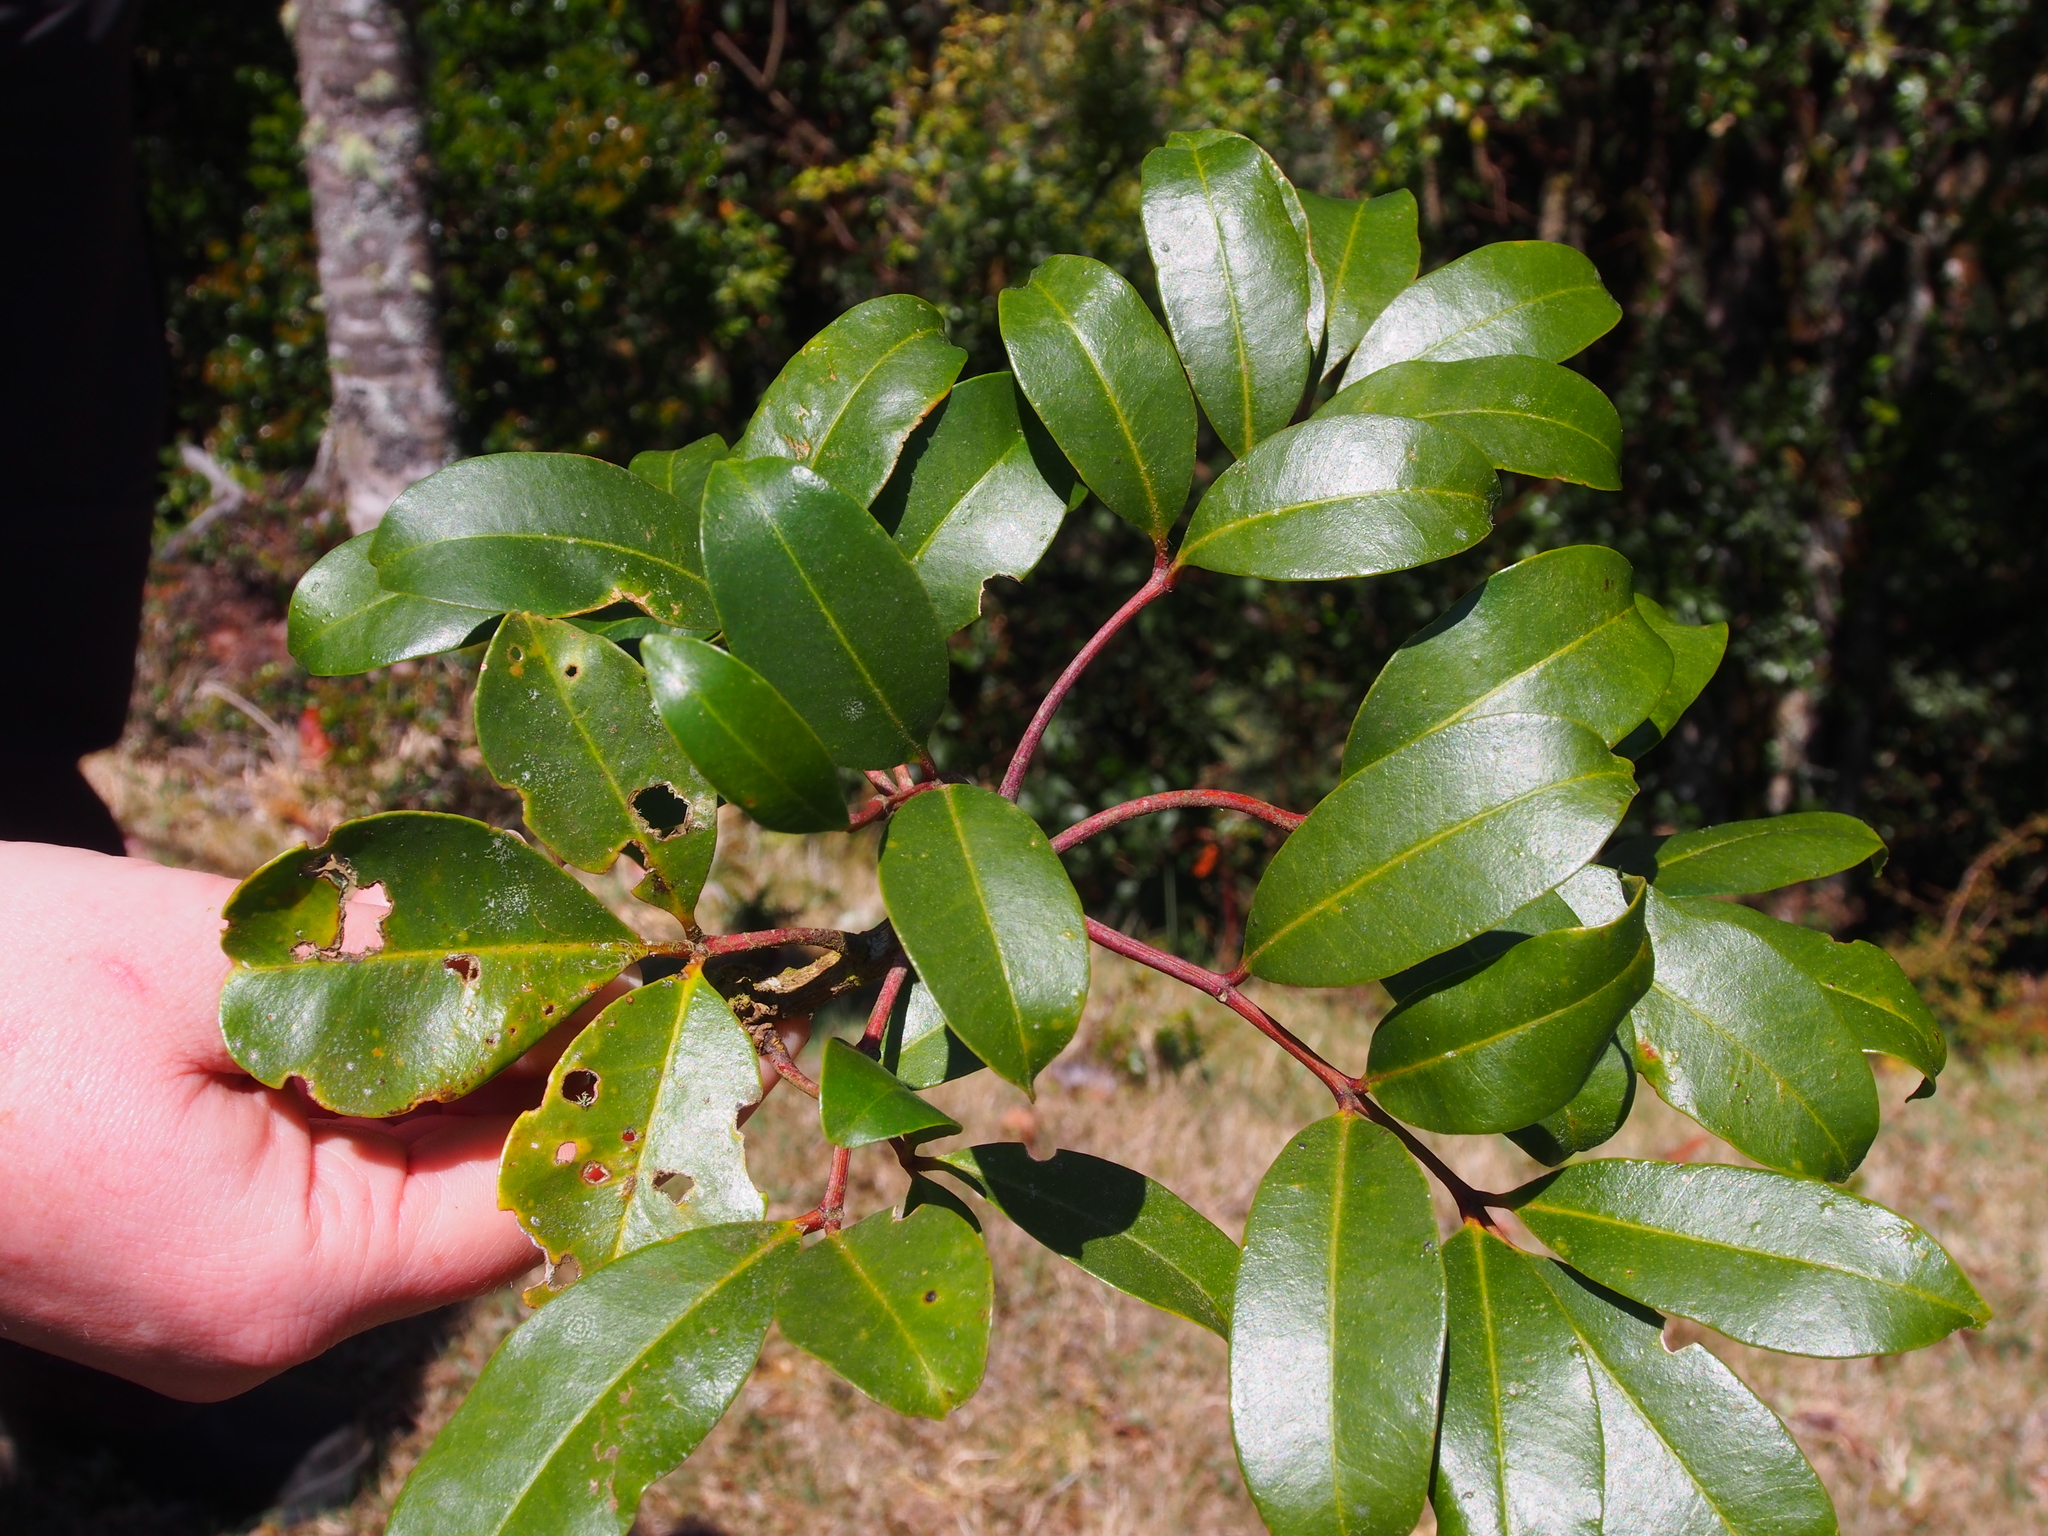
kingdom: Plantae
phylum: Tracheophyta
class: Magnoliopsida
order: Sapindales
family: Rutaceae
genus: Zanthoxylum
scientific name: Zanthoxylum melanostictum
